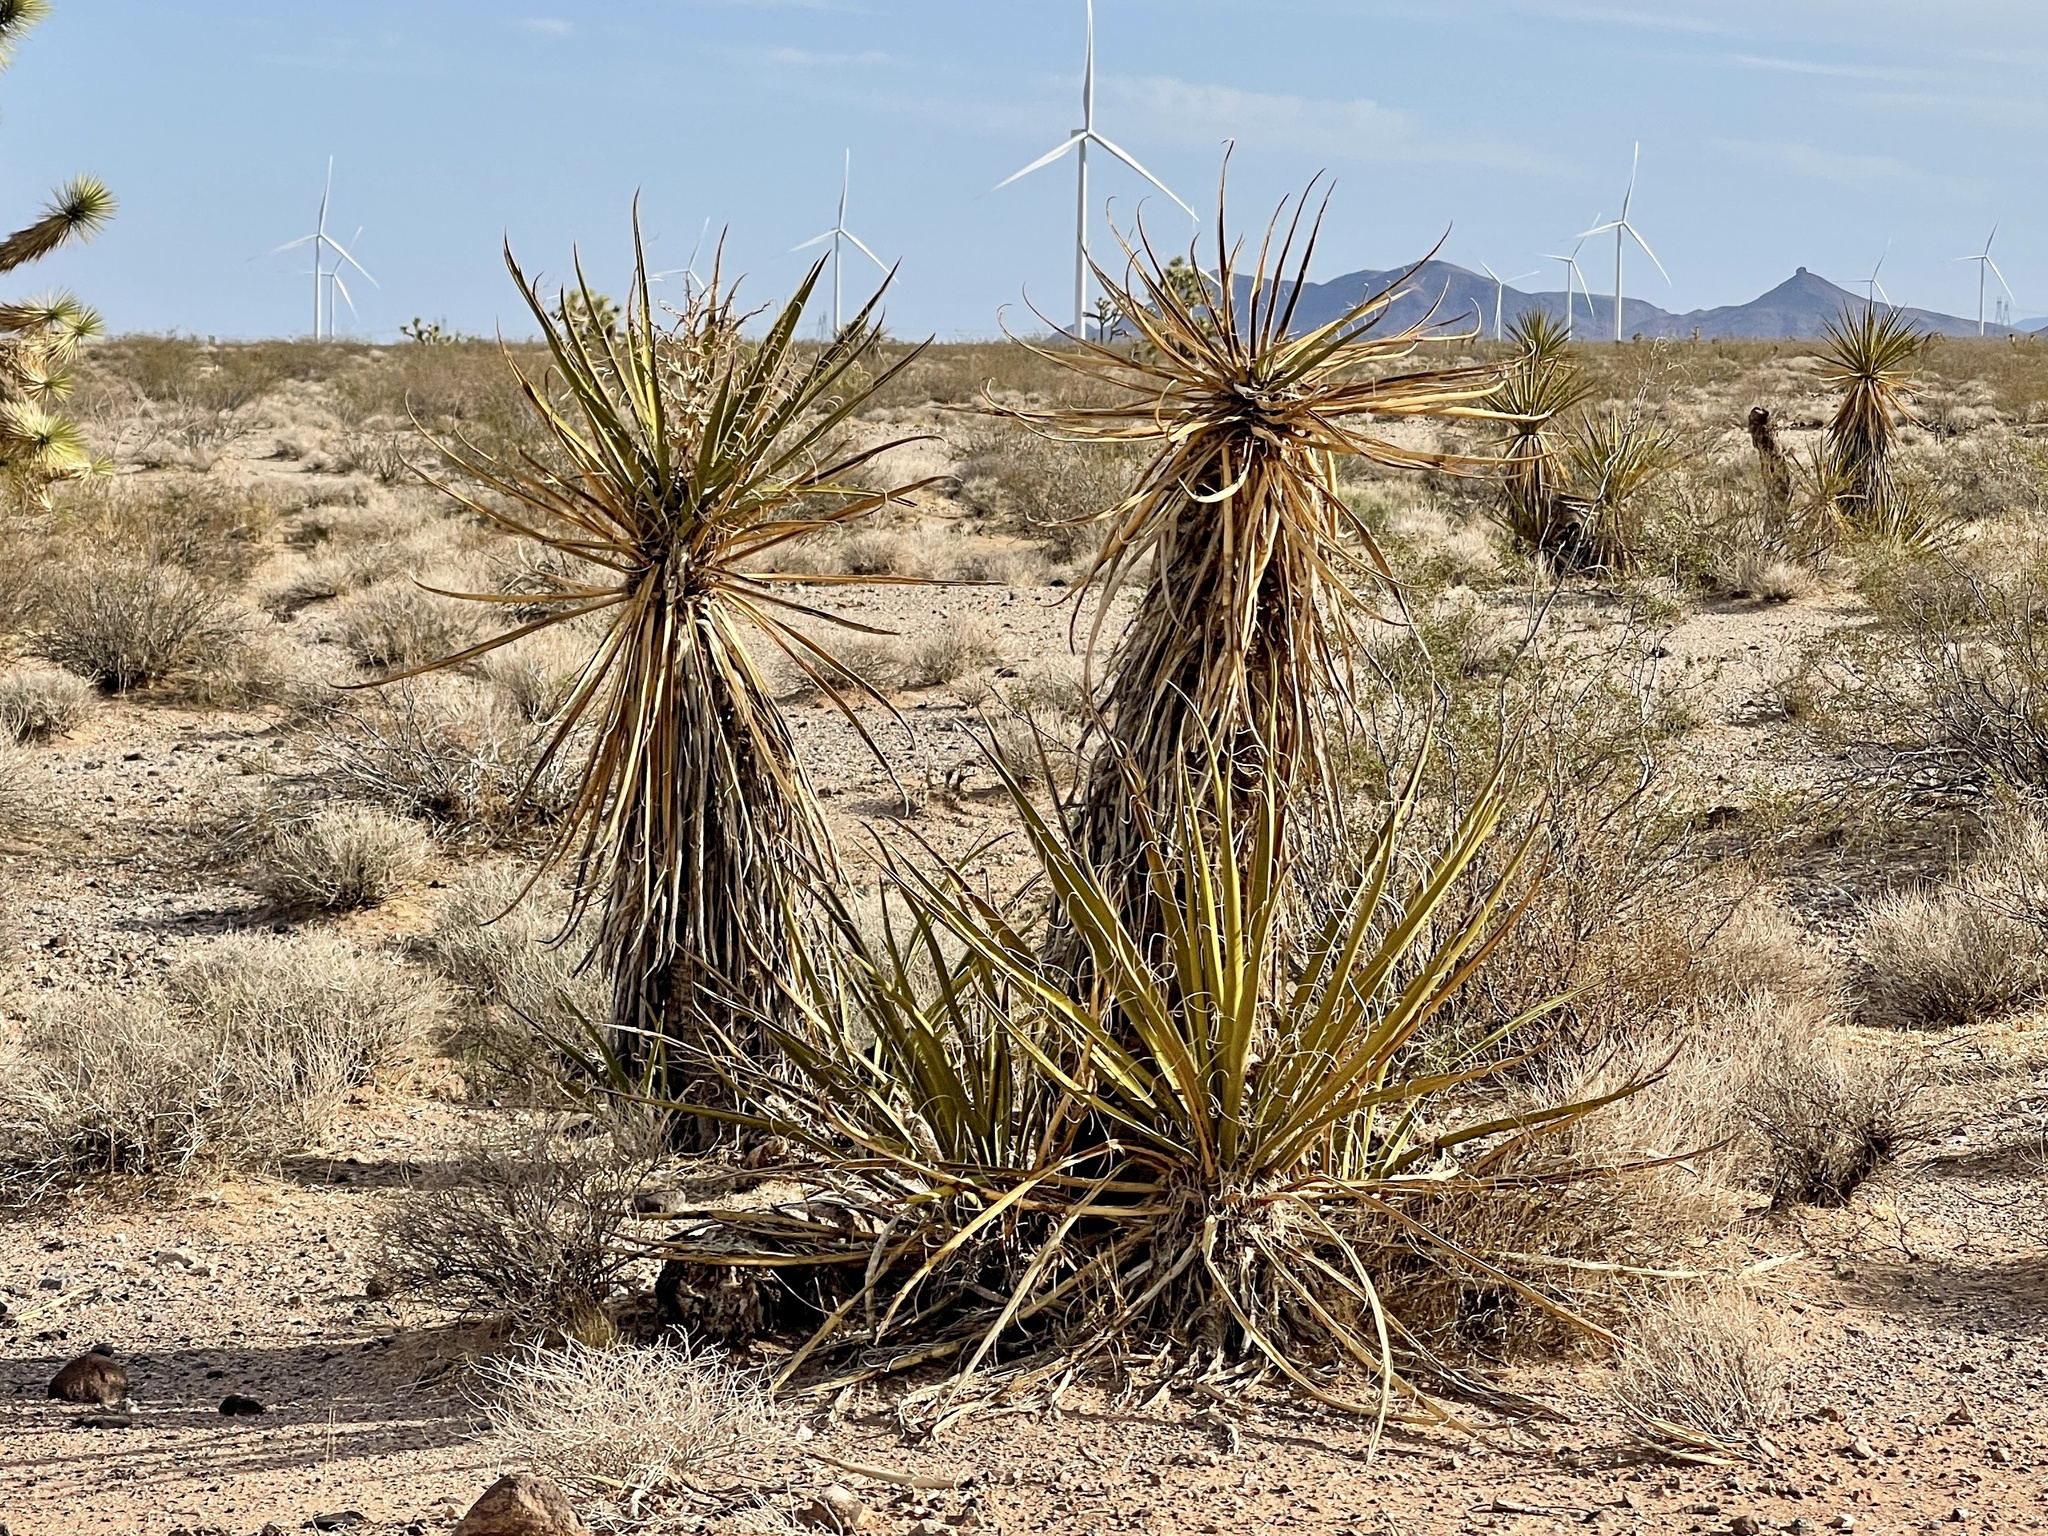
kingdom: Plantae
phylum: Tracheophyta
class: Liliopsida
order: Asparagales
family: Asparagaceae
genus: Yucca
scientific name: Yucca schidigera
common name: Mojave yucca
